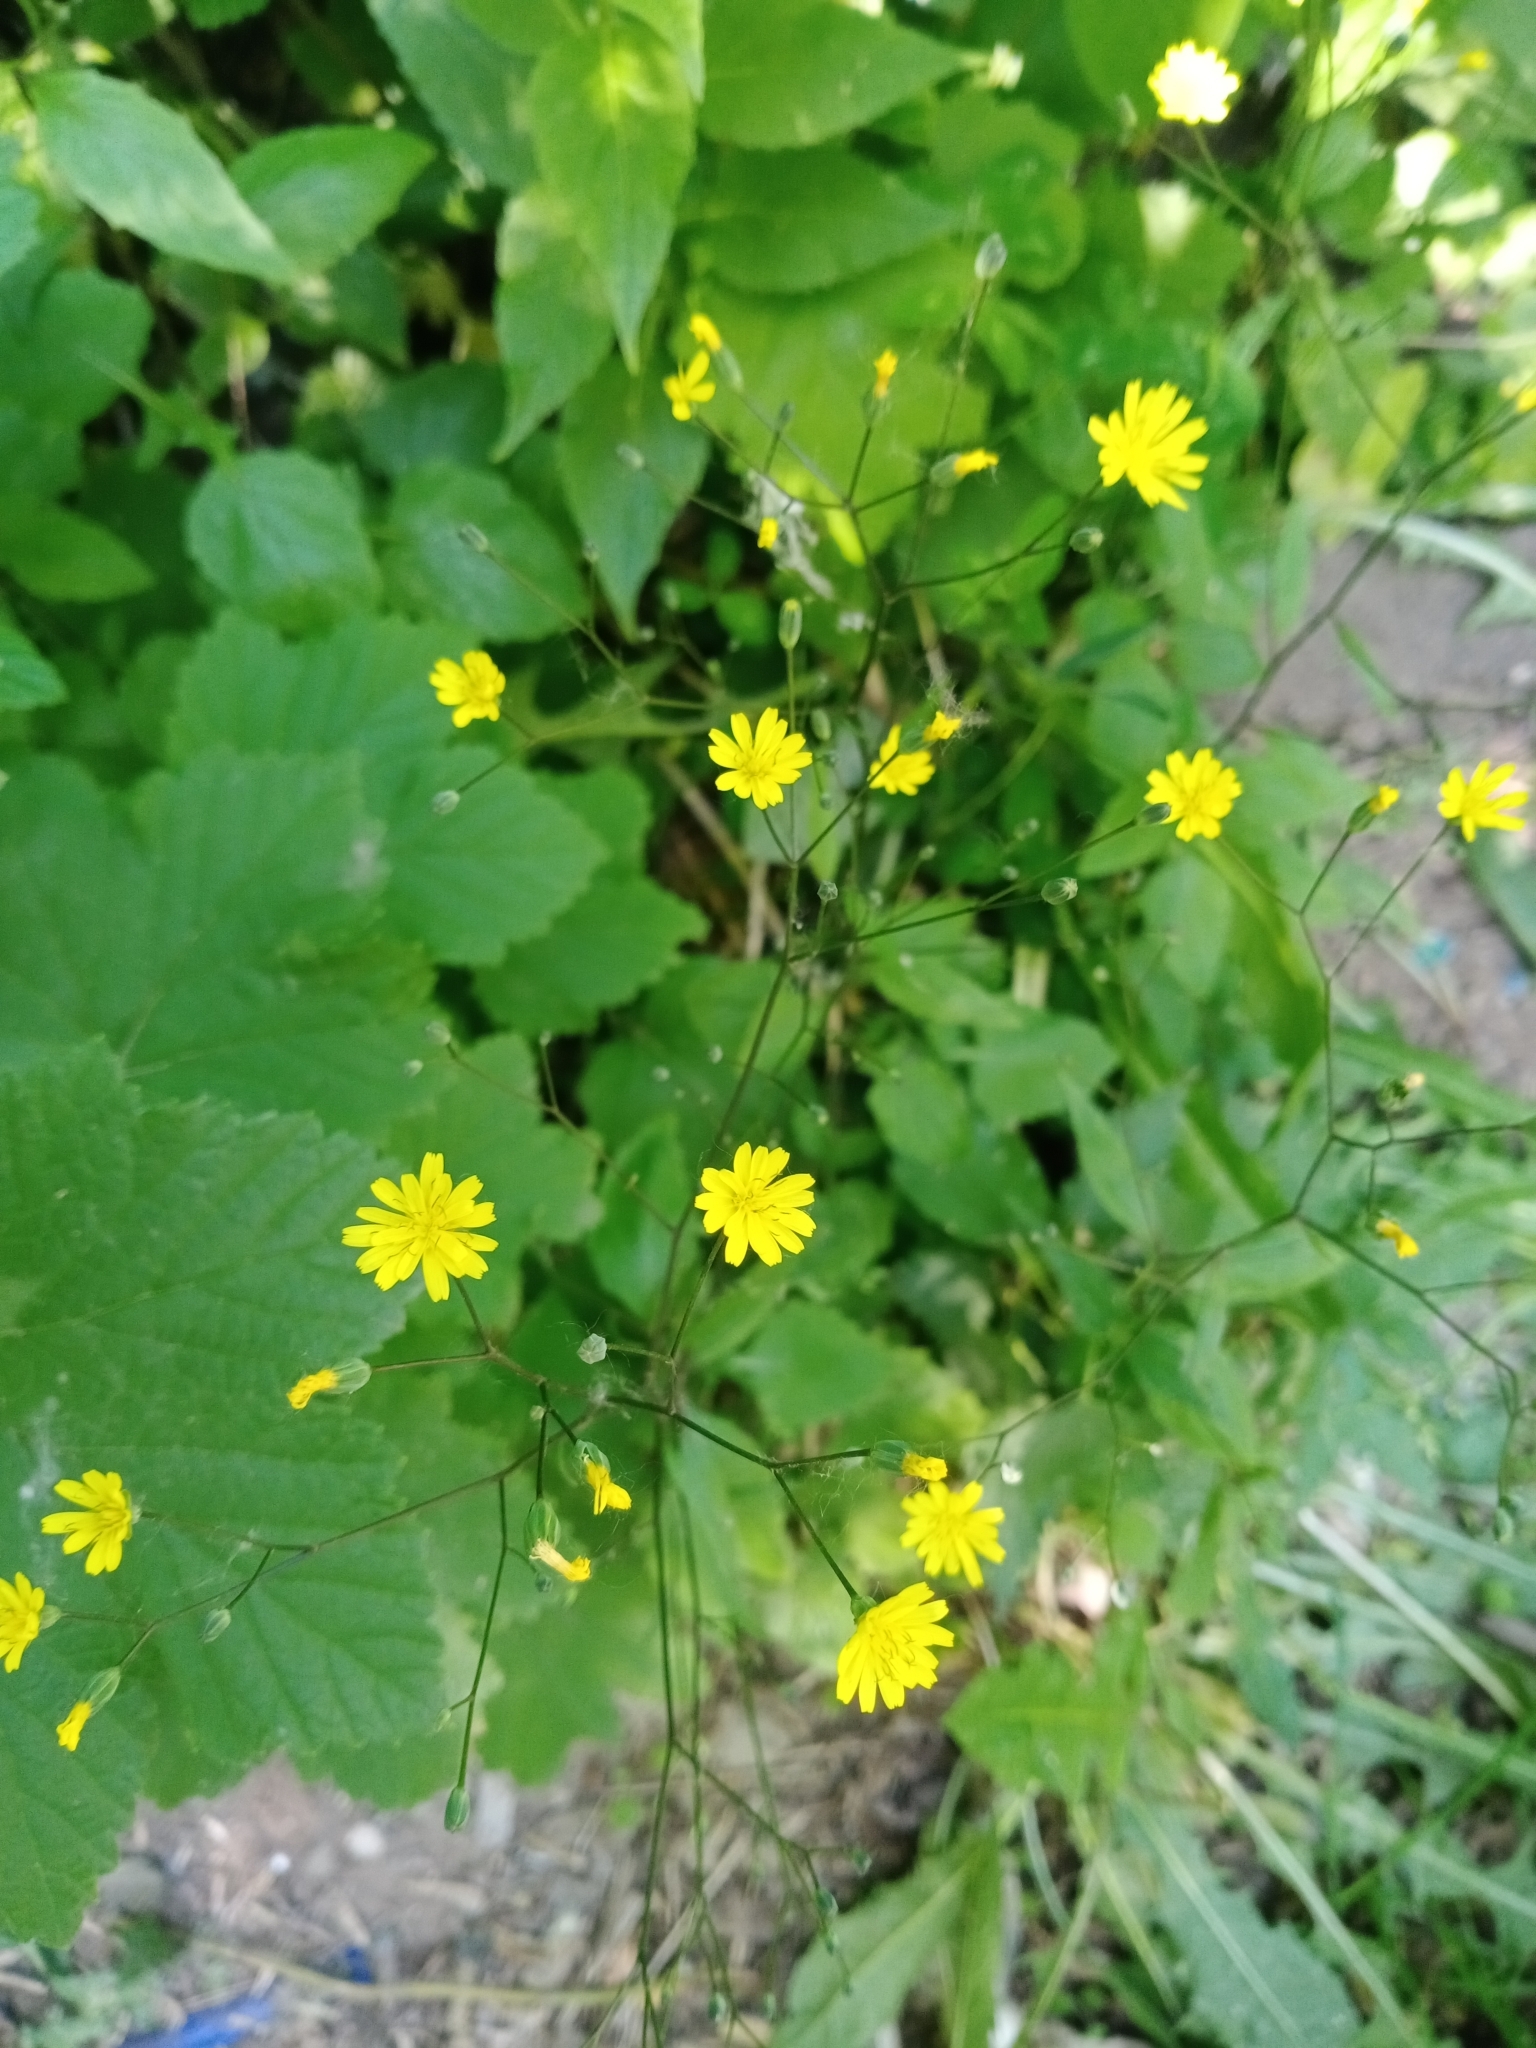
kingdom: Plantae
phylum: Tracheophyta
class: Magnoliopsida
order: Asterales
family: Asteraceae
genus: Lapsana
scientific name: Lapsana communis
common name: Nipplewort
